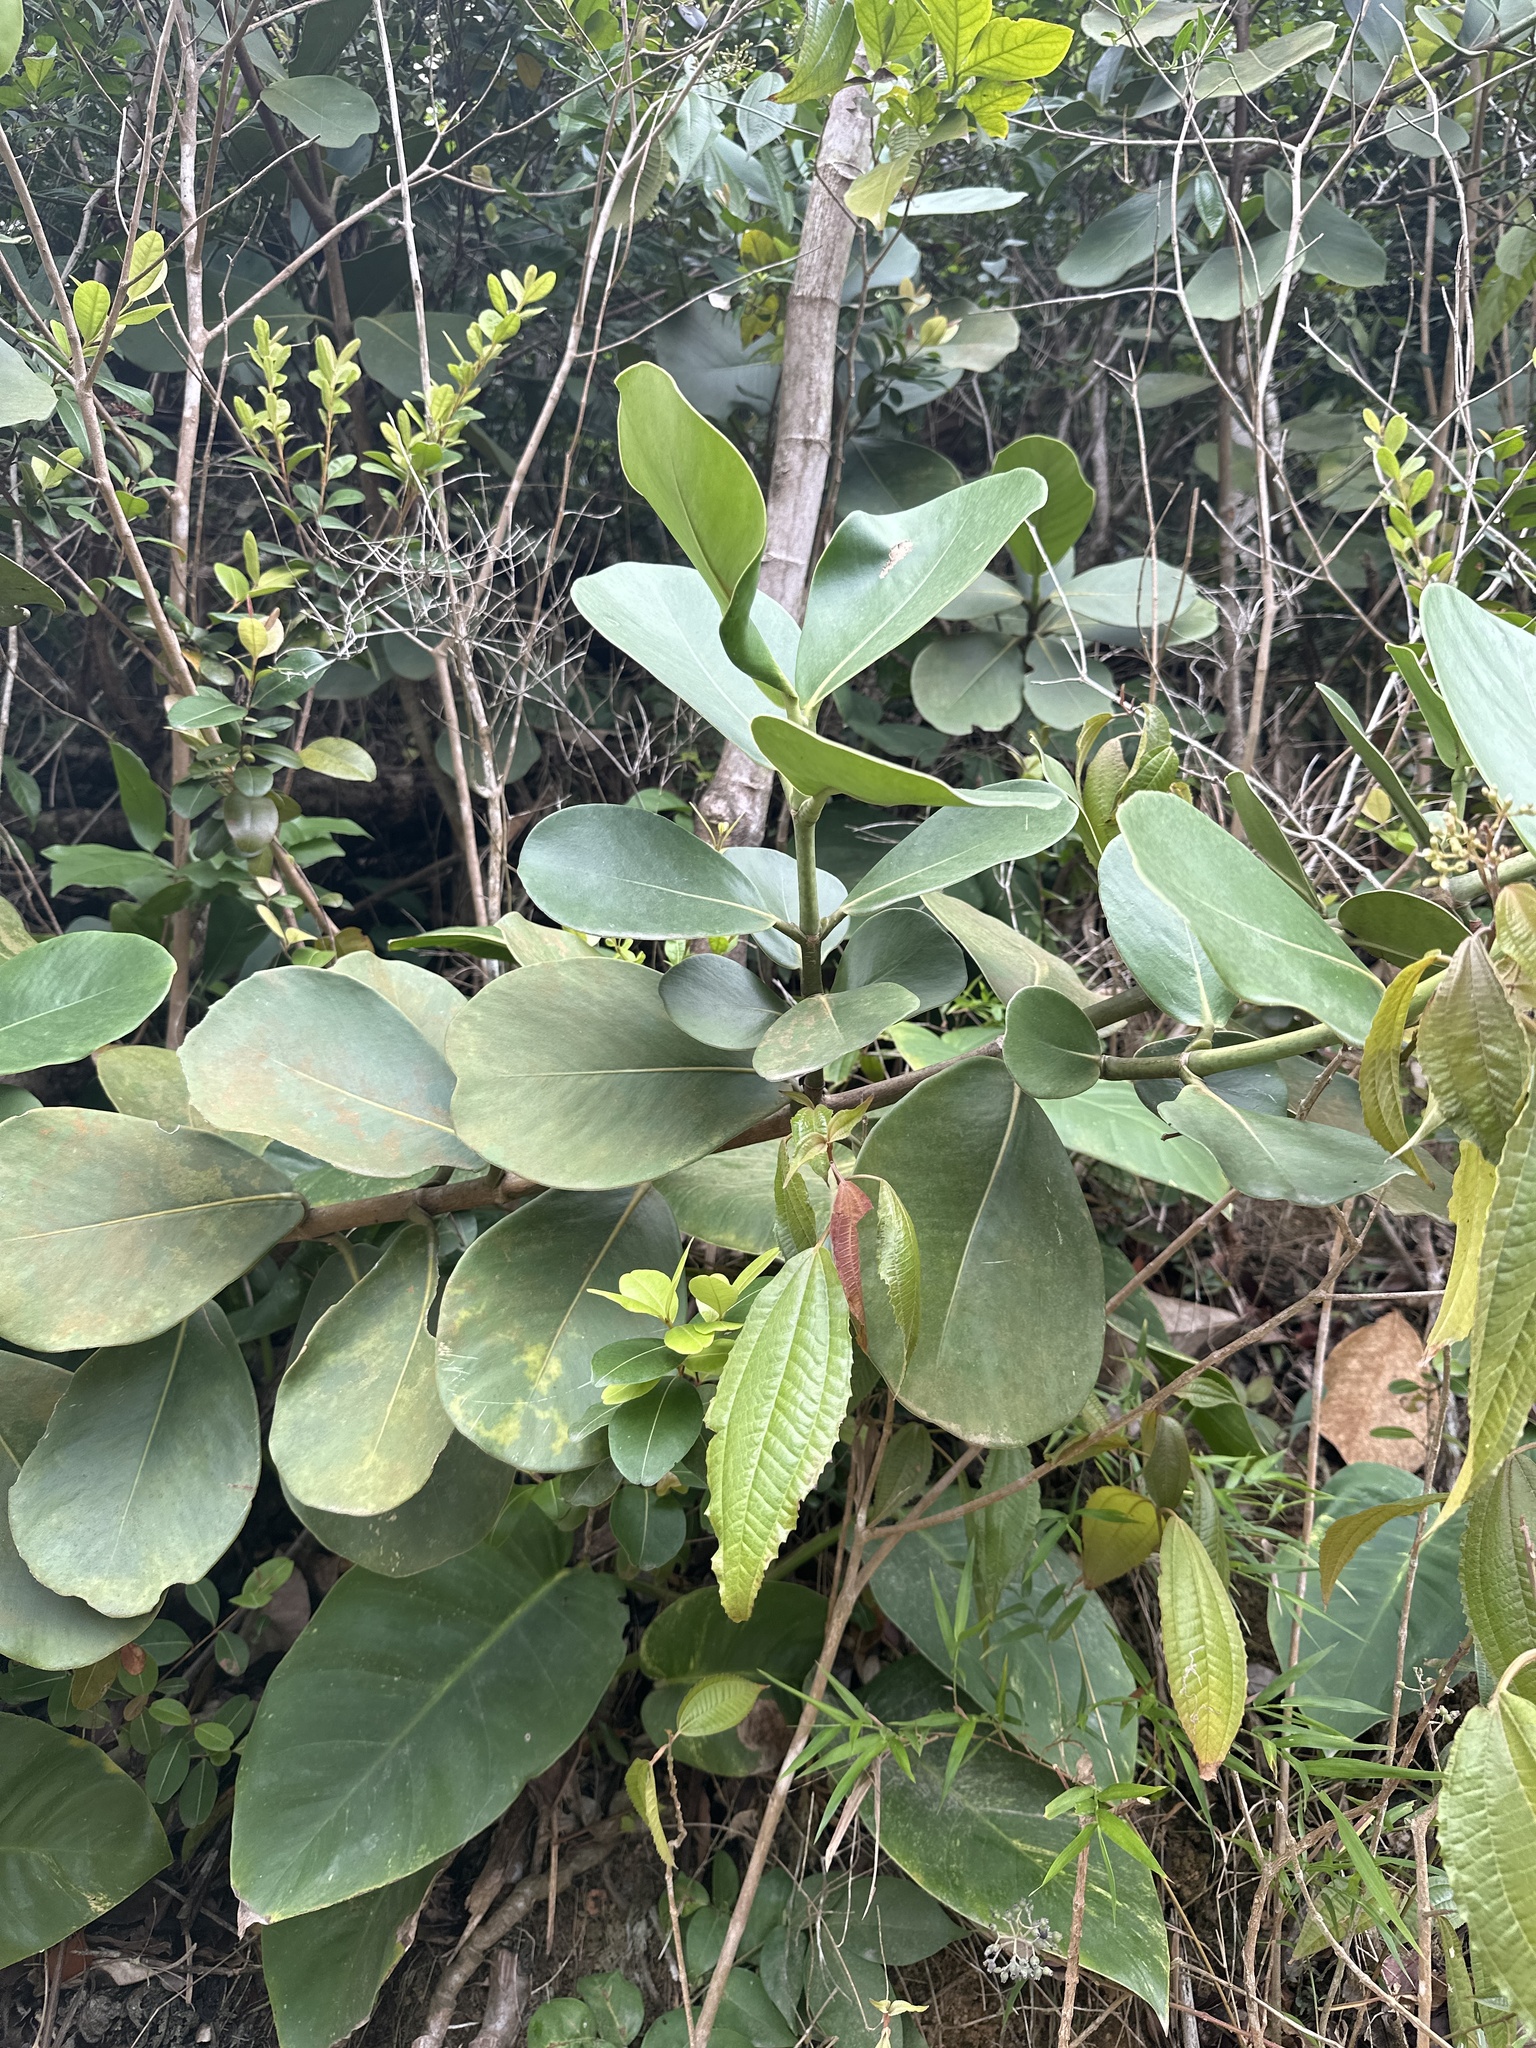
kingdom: Plantae
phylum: Tracheophyta
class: Magnoliopsida
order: Malpighiales
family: Clusiaceae
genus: Clusia
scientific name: Clusia rosea
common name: Scotch attorney
